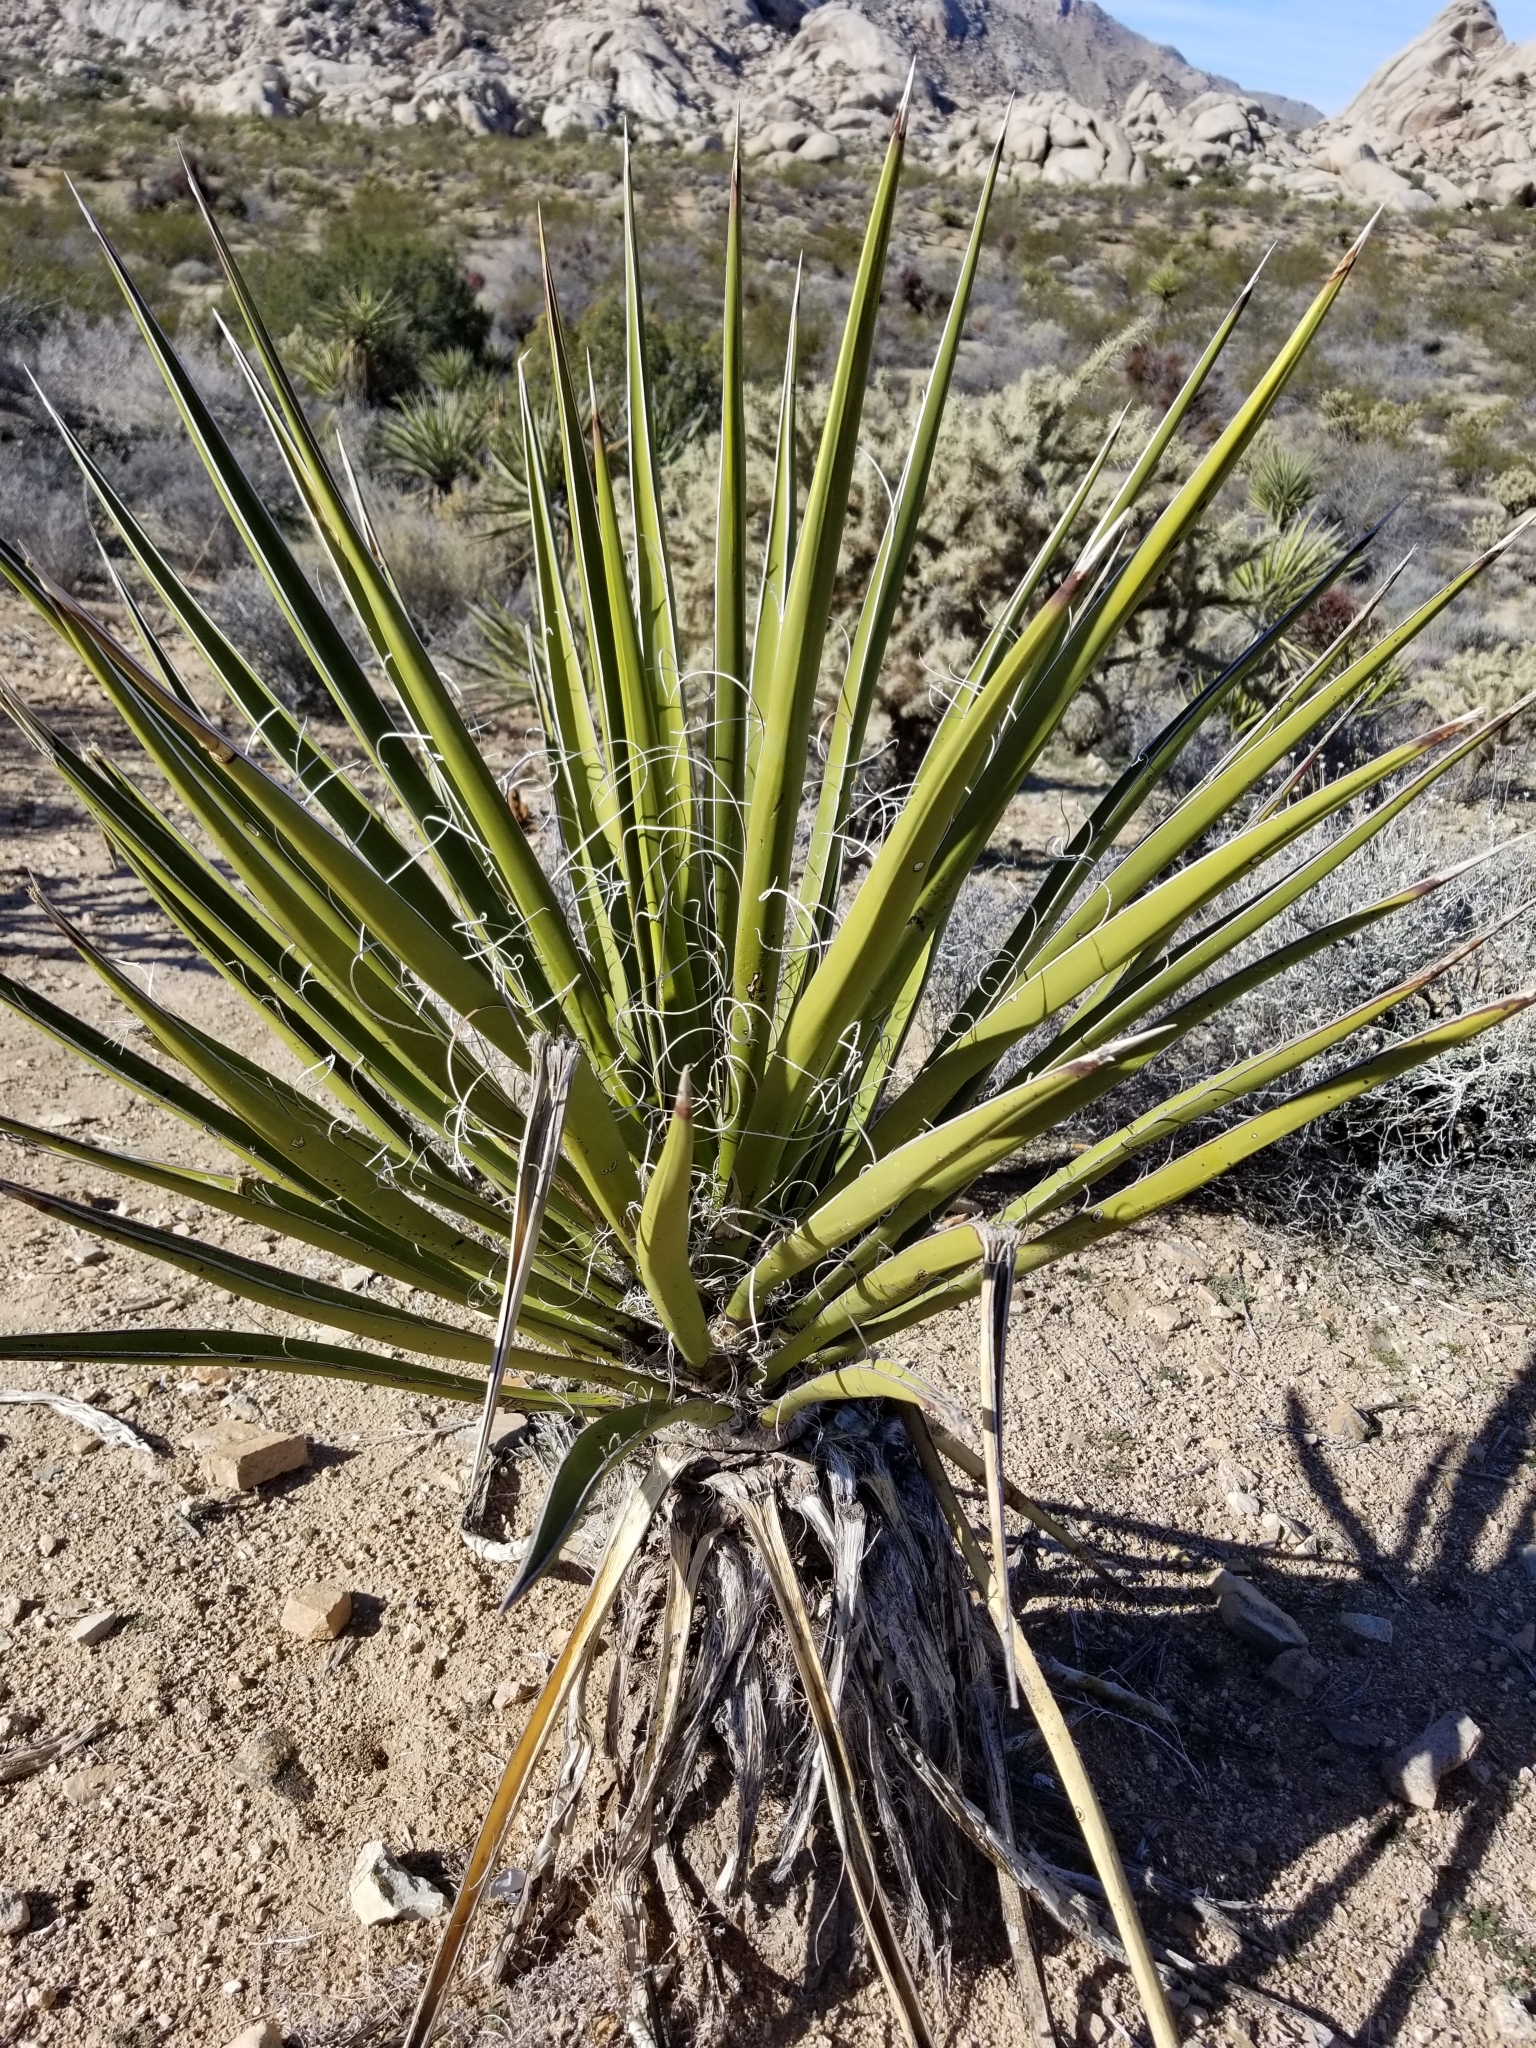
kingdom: Plantae
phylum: Tracheophyta
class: Liliopsida
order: Asparagales
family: Asparagaceae
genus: Yucca
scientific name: Yucca schidigera
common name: Mojave yucca
